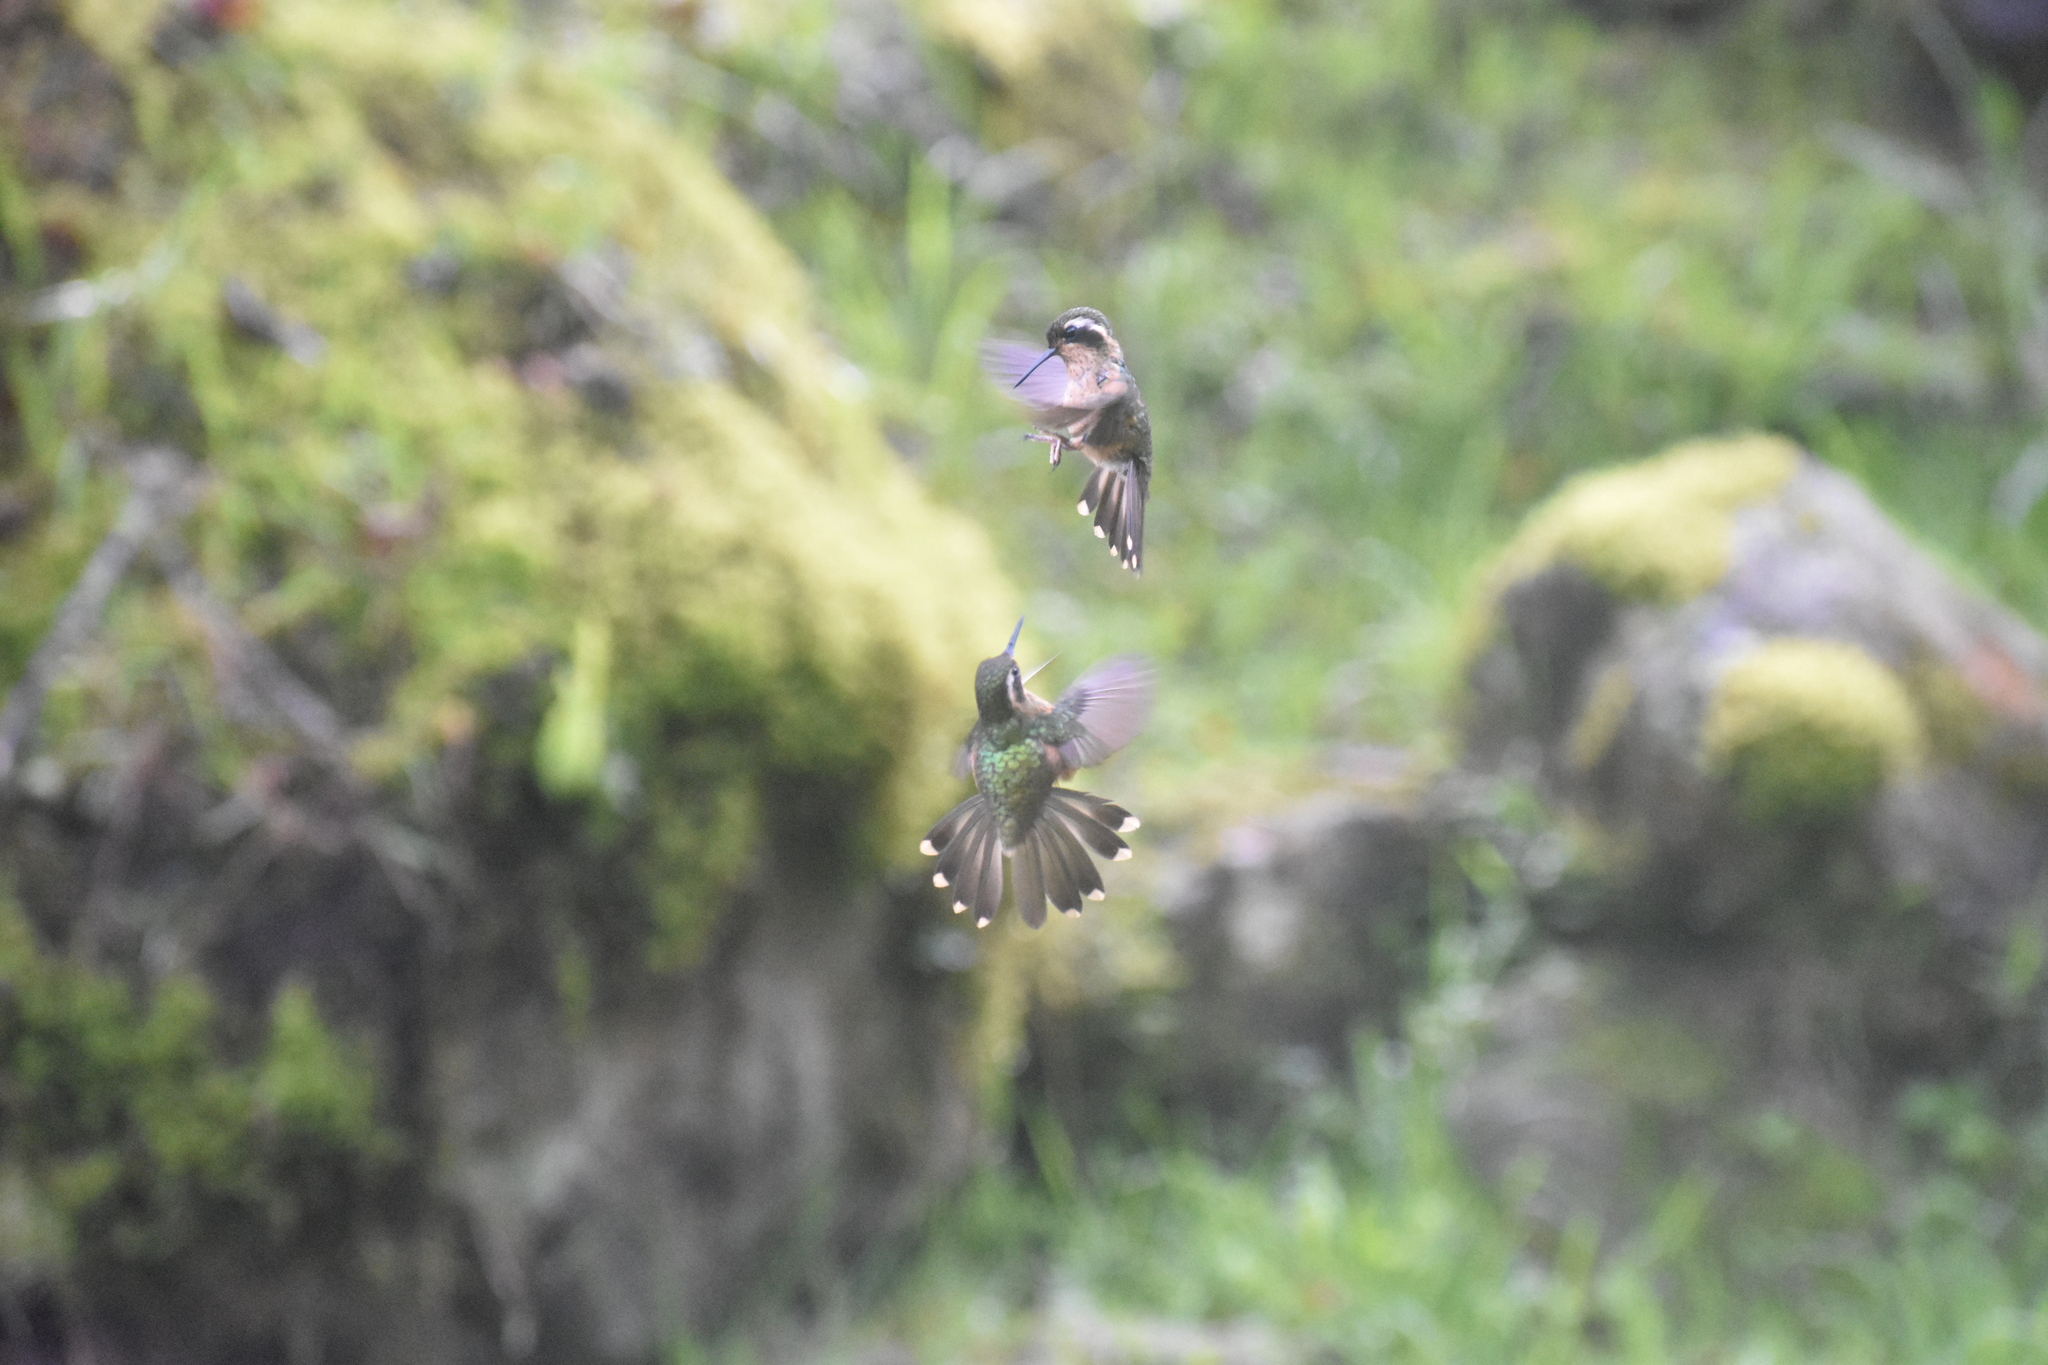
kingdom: Animalia
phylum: Chordata
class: Aves
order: Apodiformes
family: Trochilidae
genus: Adelomyia
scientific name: Adelomyia melanogenys
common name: Speckled hummingbird
